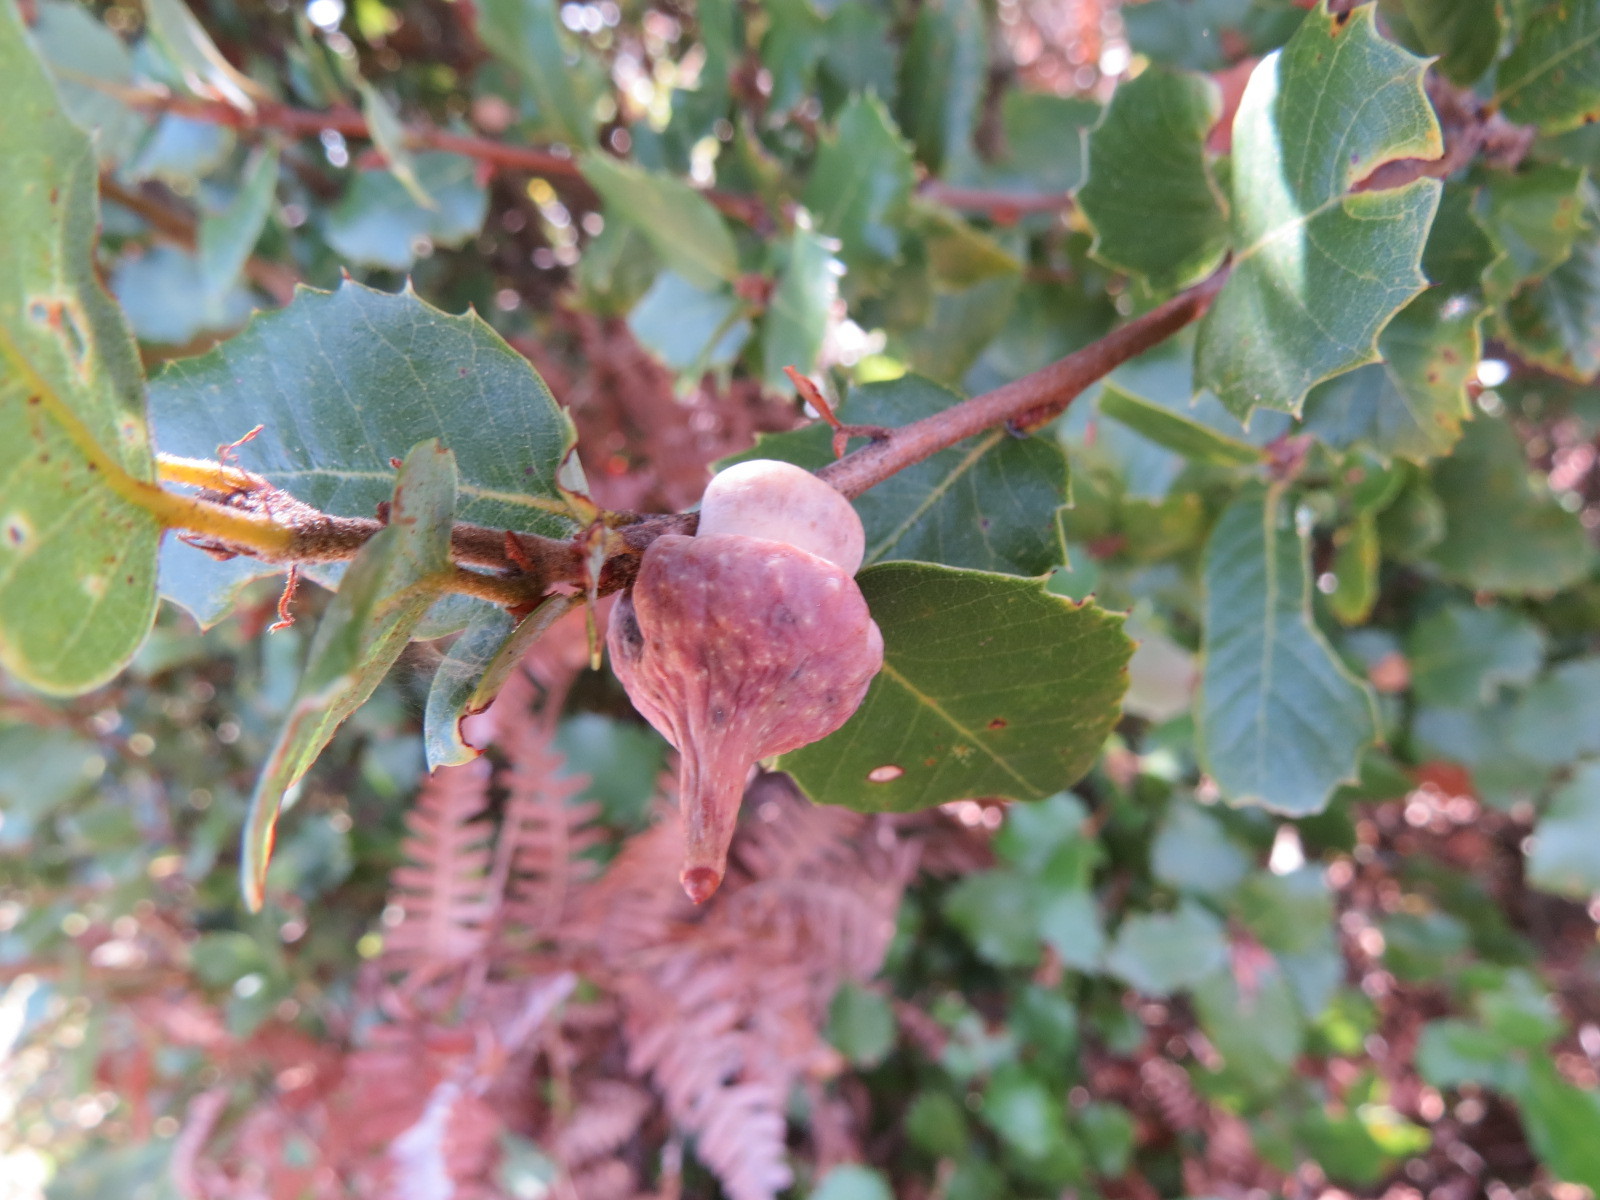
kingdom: Animalia
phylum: Arthropoda
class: Insecta
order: Hymenoptera
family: Cynipidae
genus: Heteroecus
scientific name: Heteroecus
